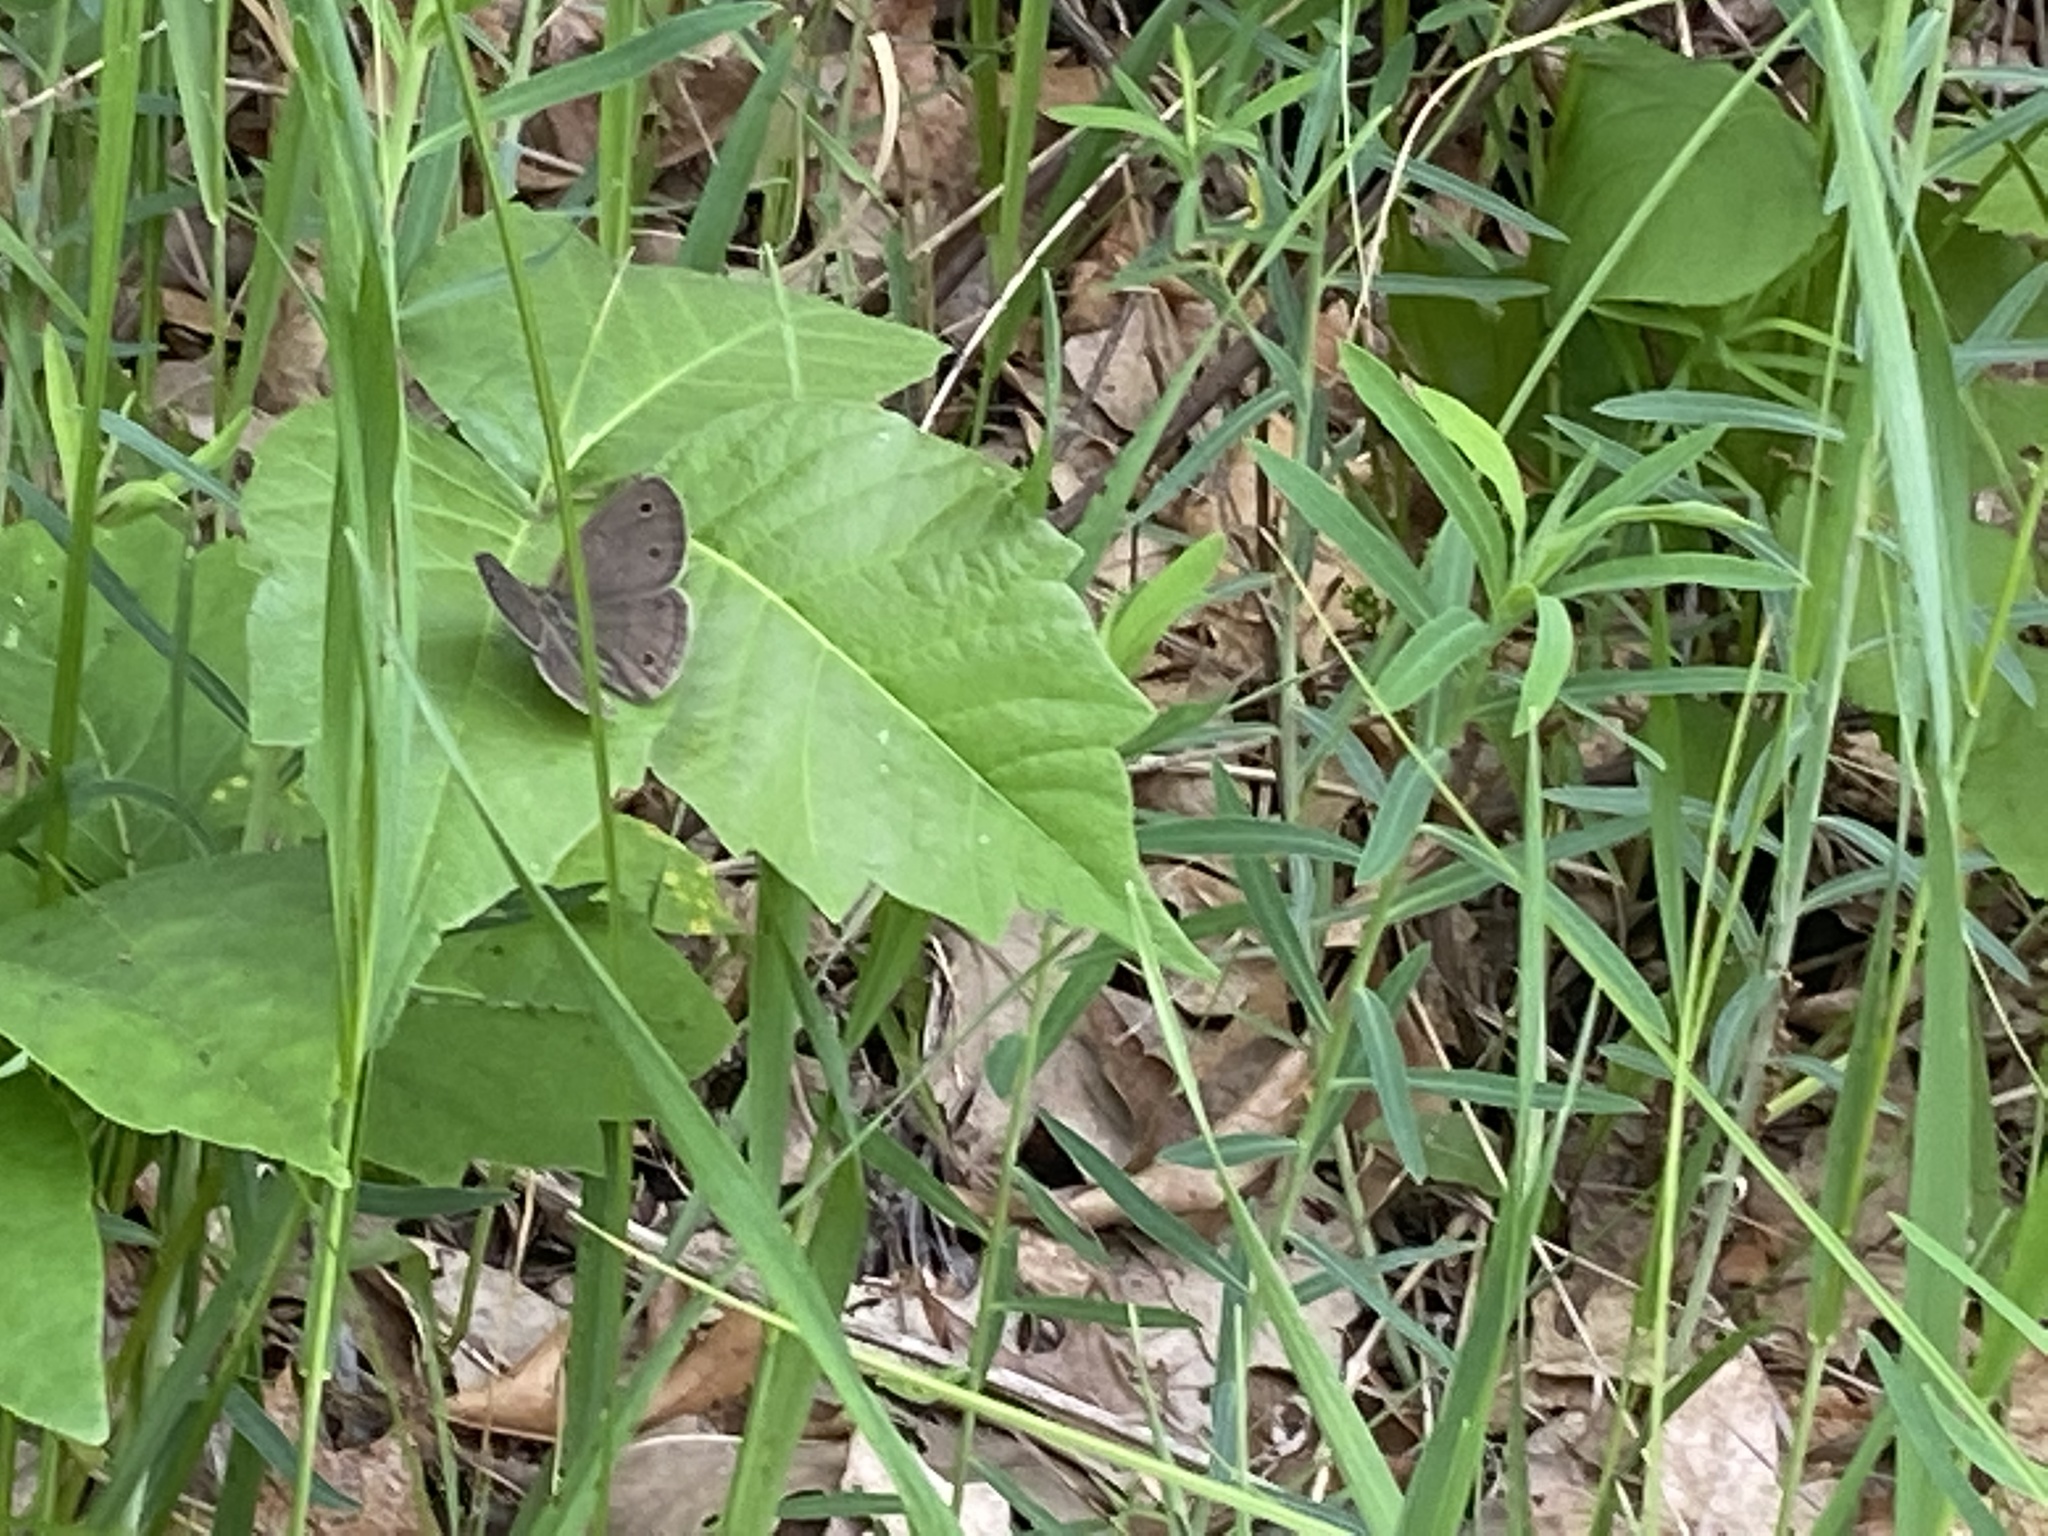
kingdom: Animalia
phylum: Arthropoda
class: Insecta
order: Lepidoptera
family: Nymphalidae
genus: Euptychia
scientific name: Euptychia cymela
